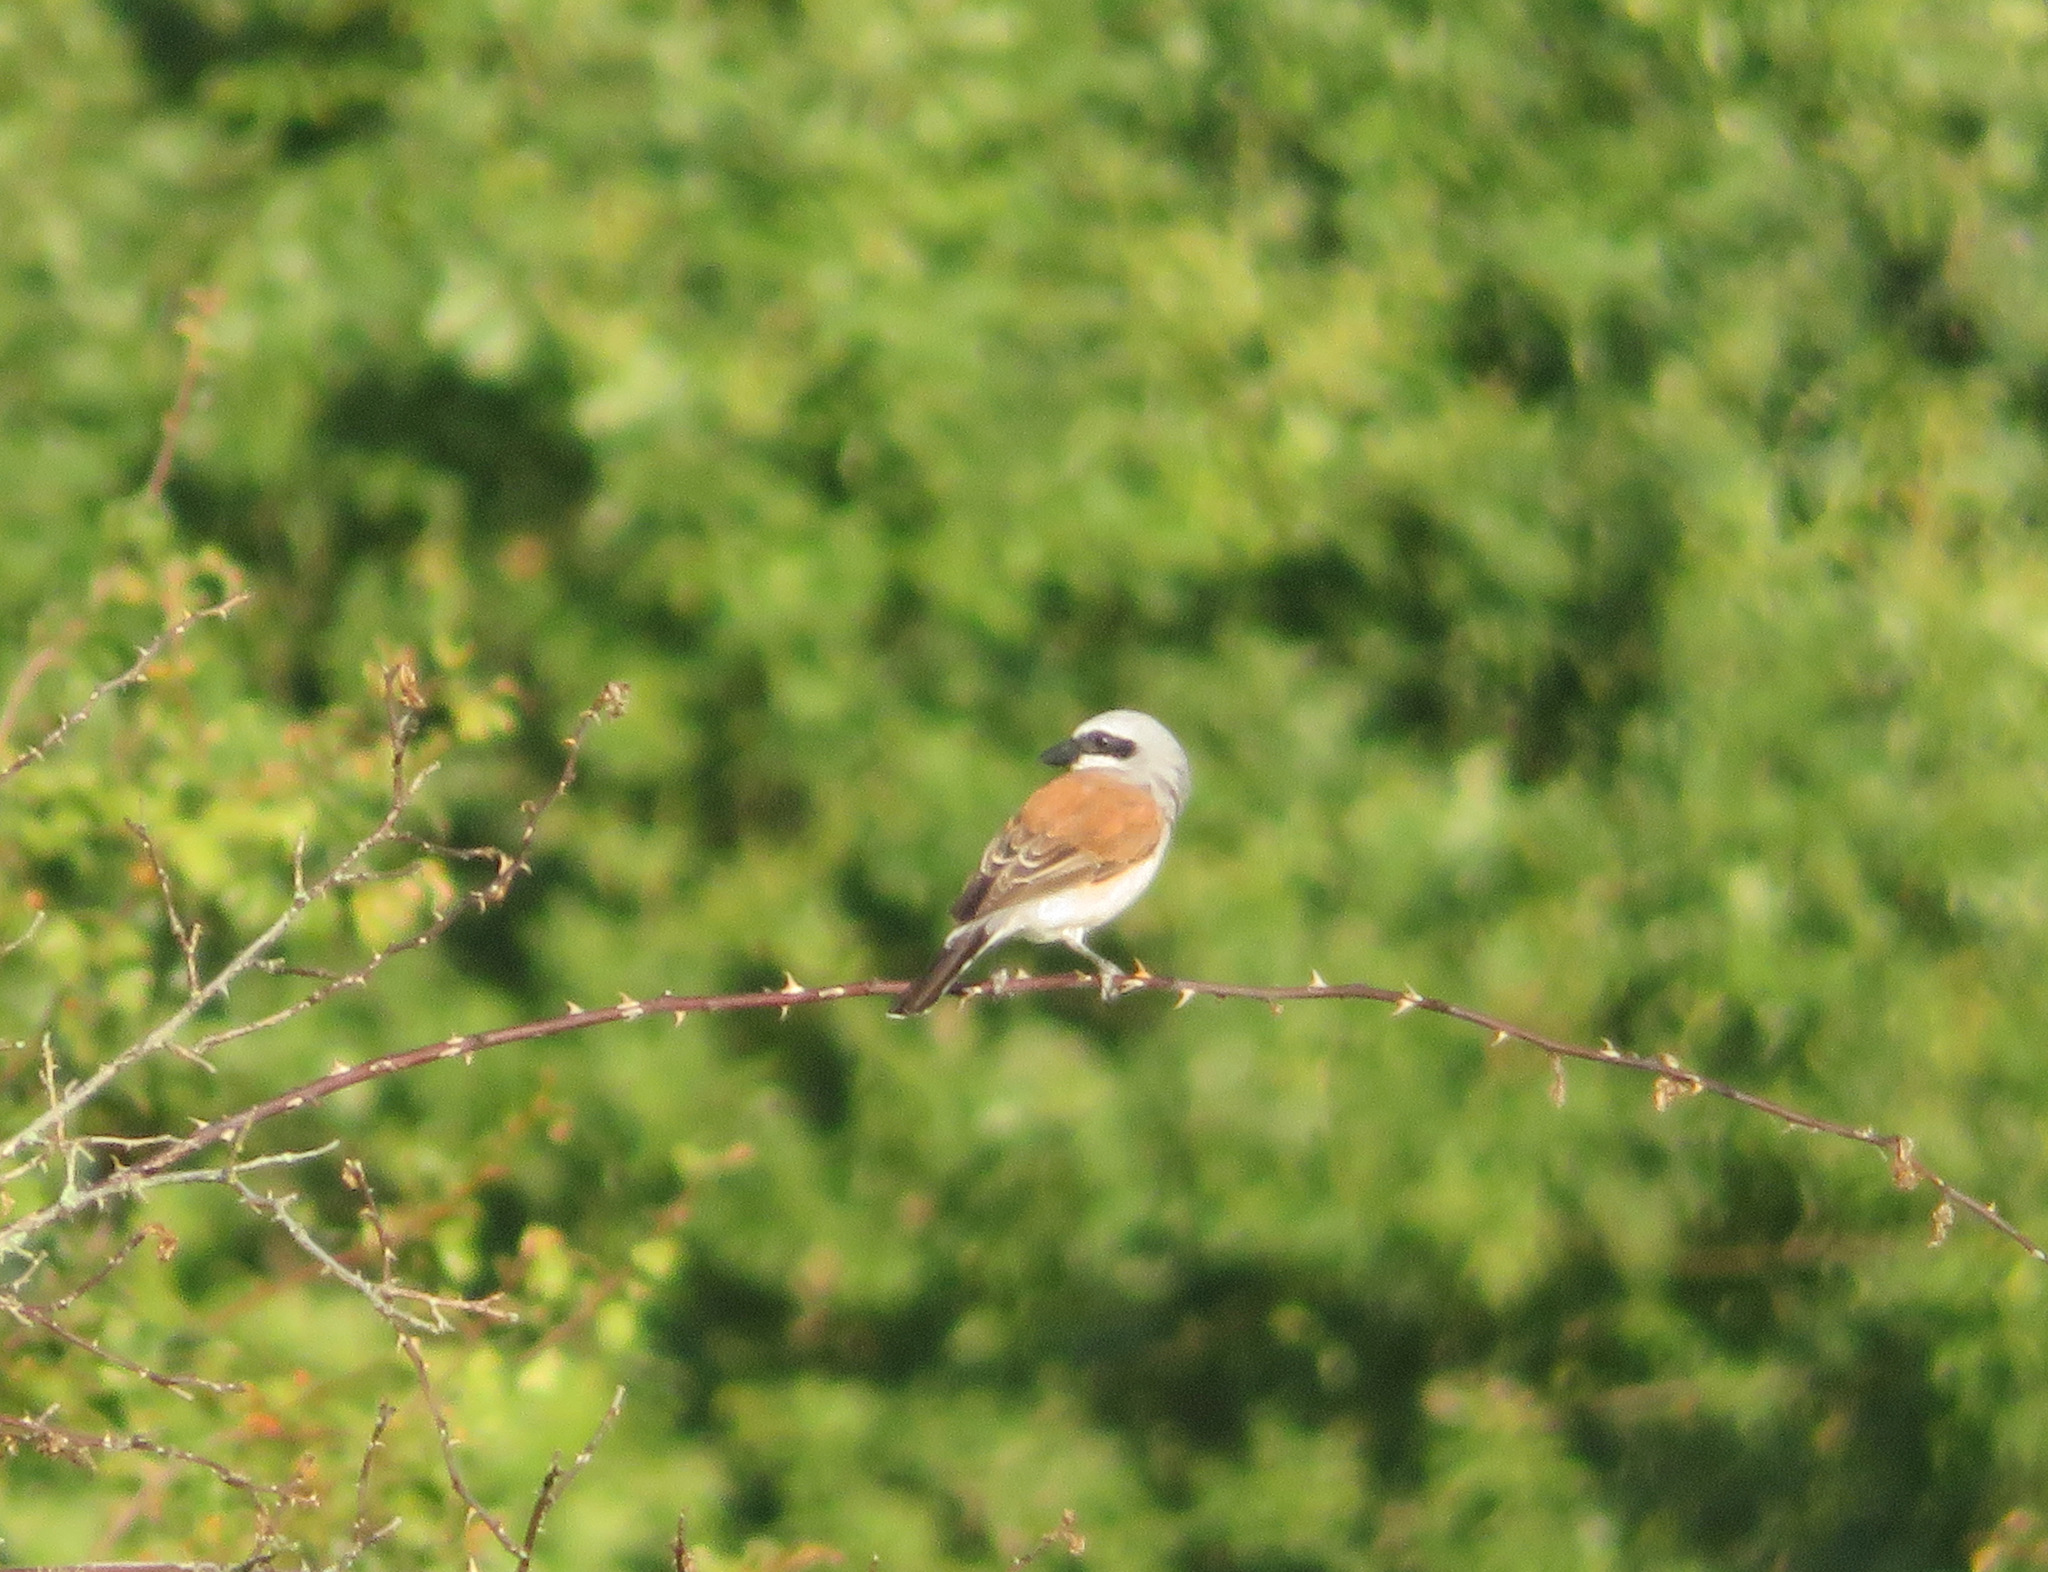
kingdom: Animalia
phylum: Chordata
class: Aves
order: Passeriformes
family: Laniidae
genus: Lanius
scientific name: Lanius collurio
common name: Red-backed shrike
